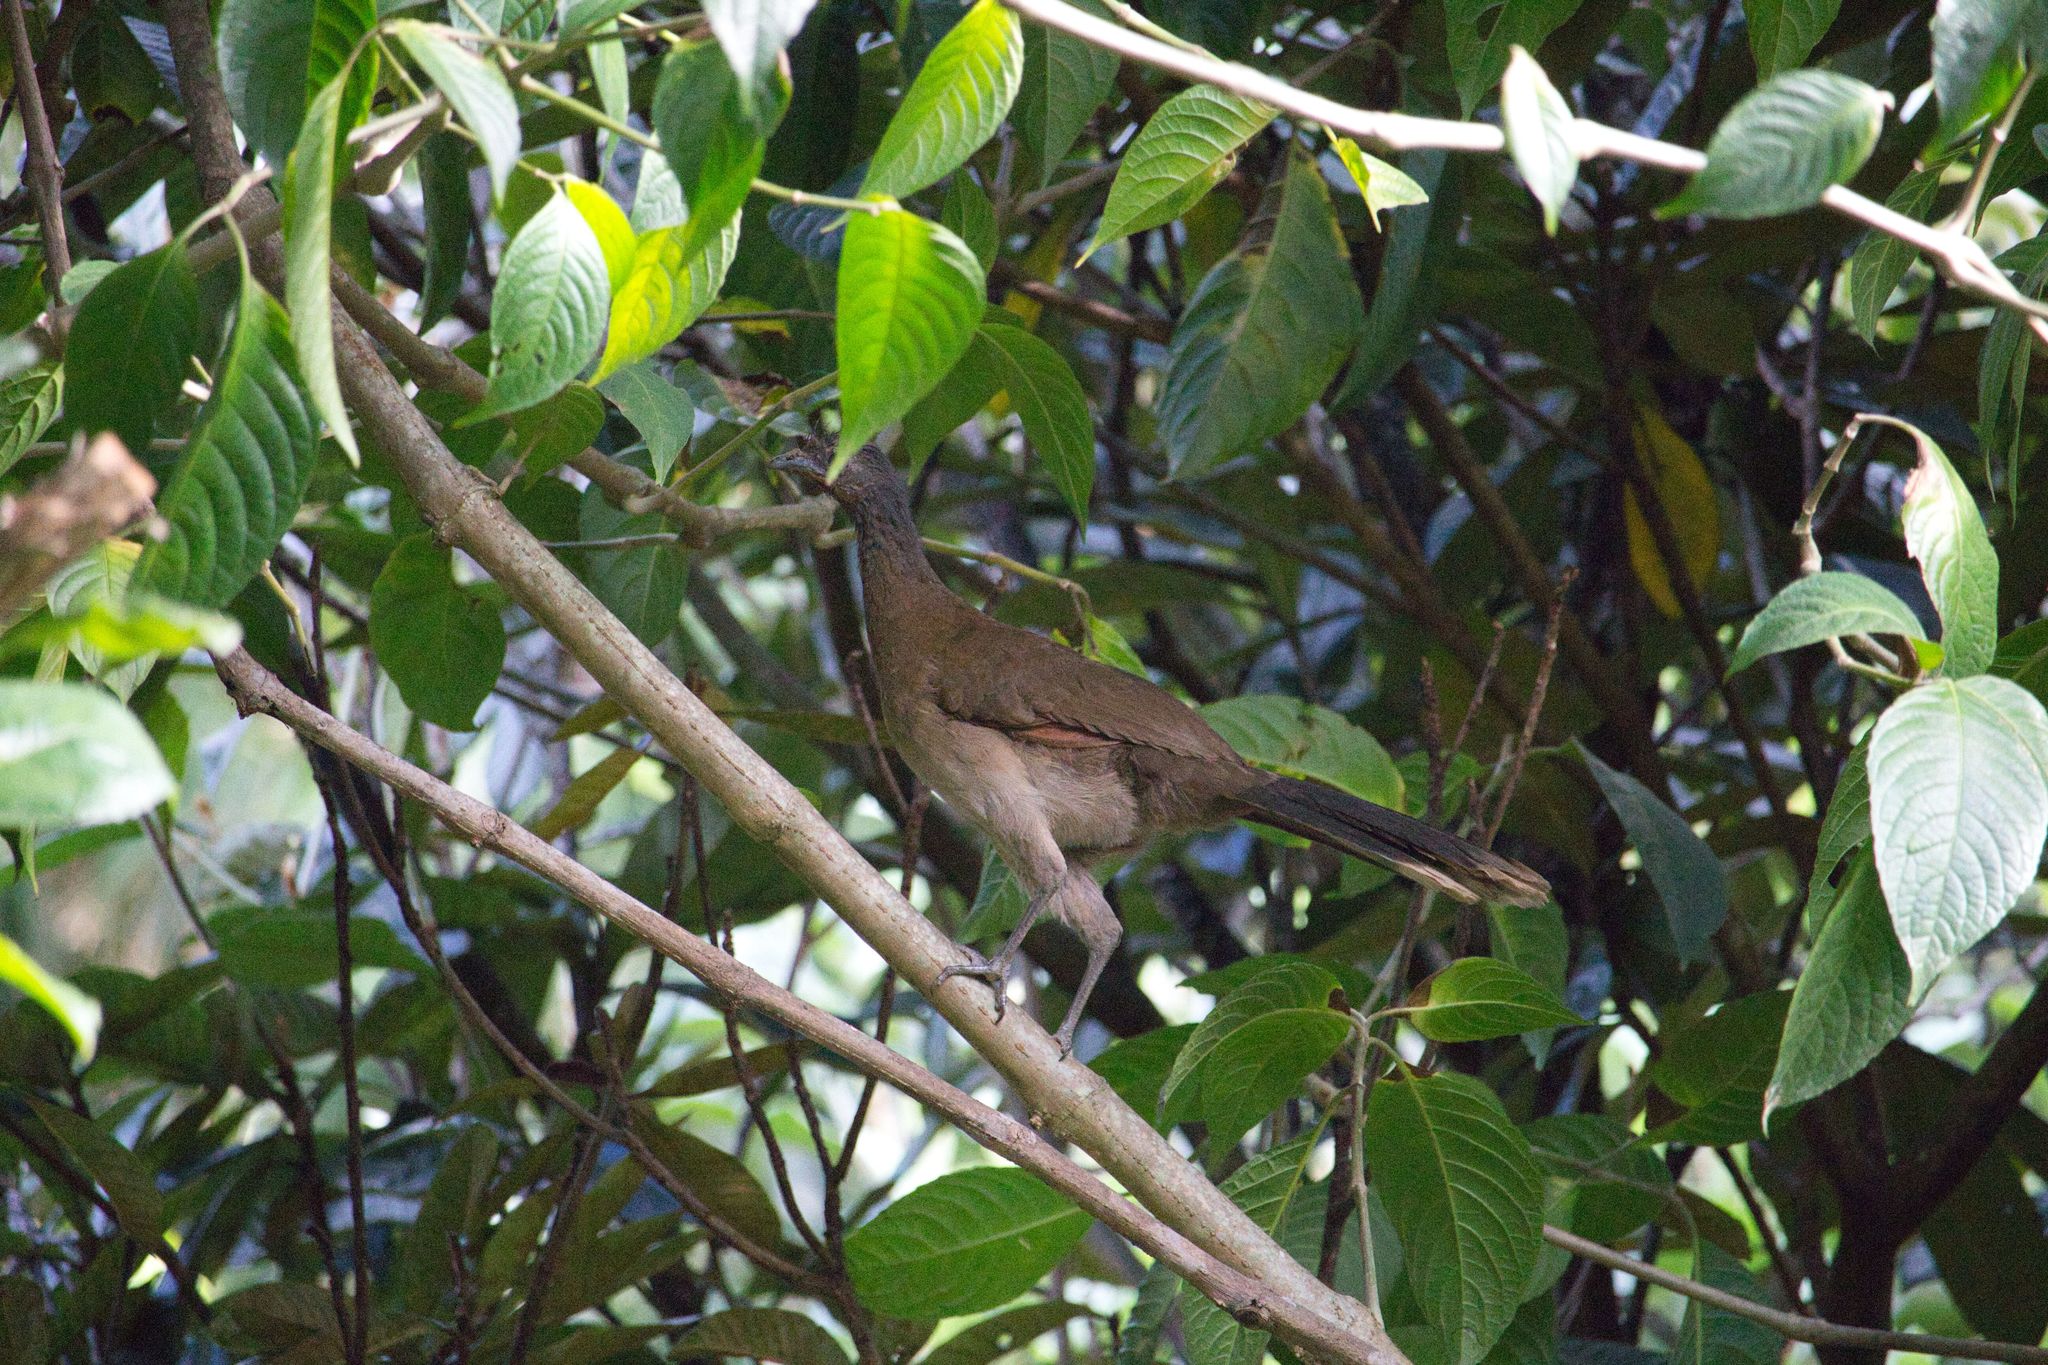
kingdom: Animalia
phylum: Chordata
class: Aves
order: Galliformes
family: Cracidae
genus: Ortalis
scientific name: Ortalis cinereiceps
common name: Grey-headed chachalaca
